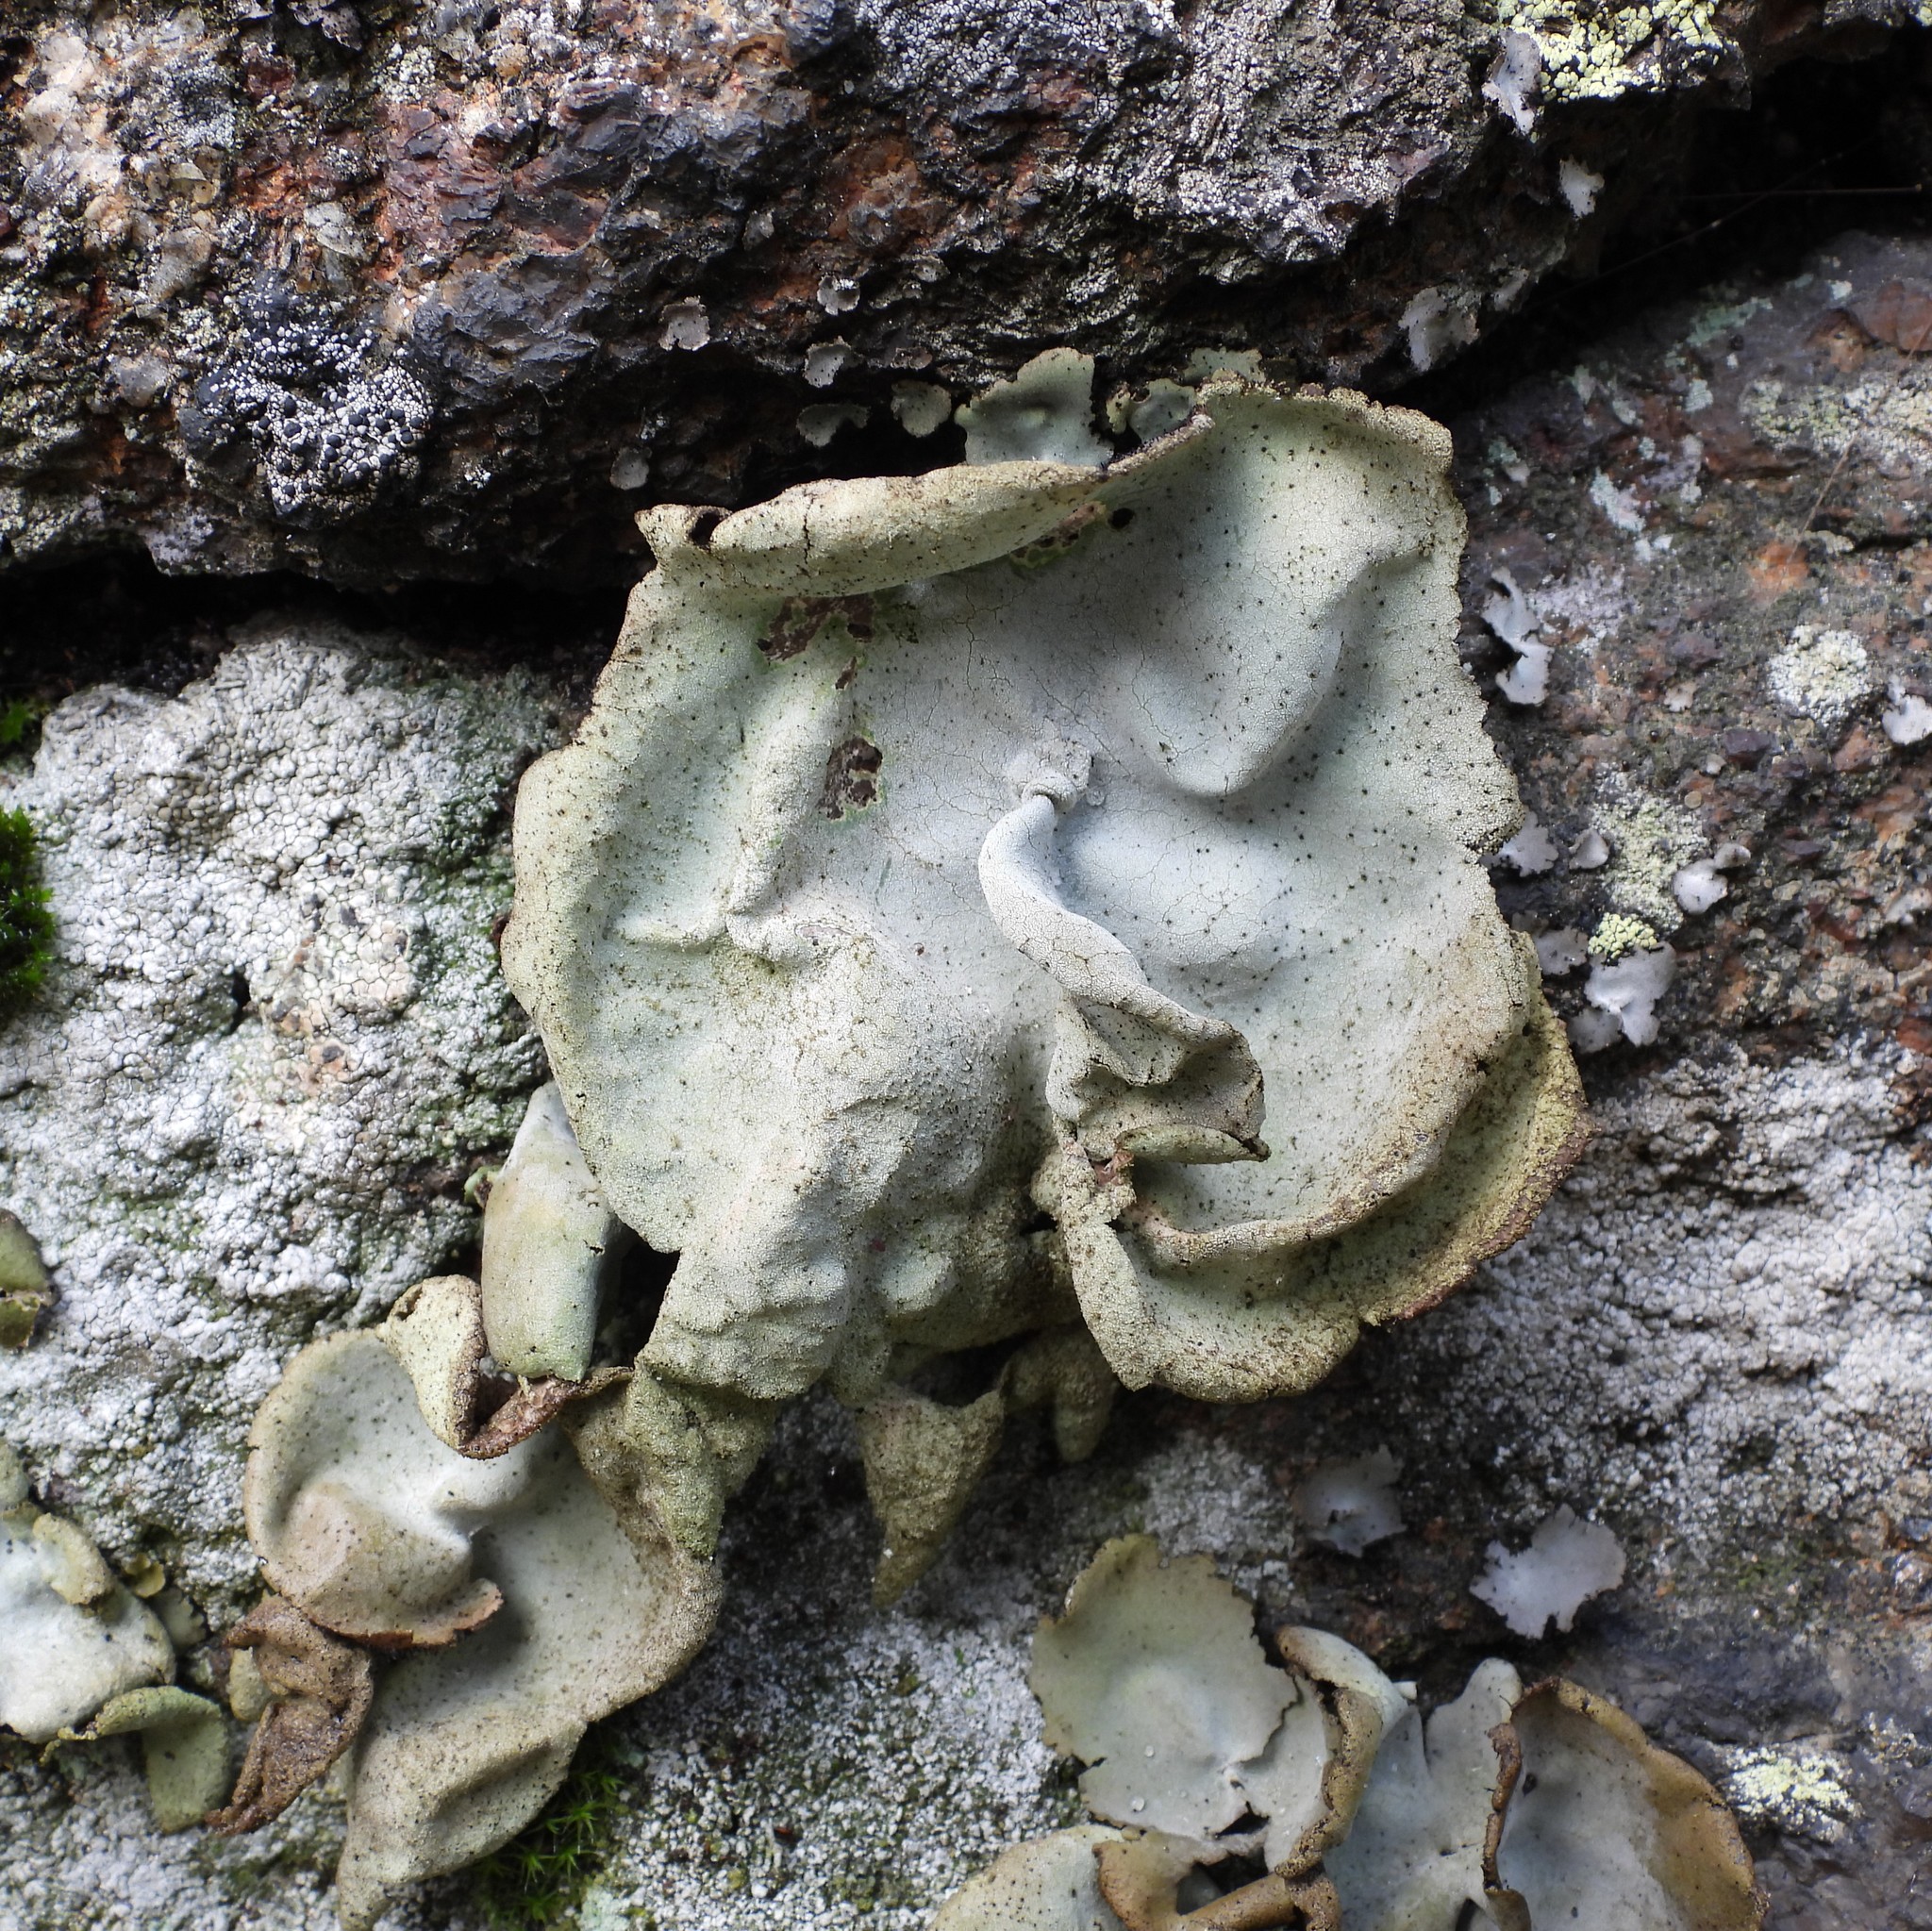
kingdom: Fungi
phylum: Ascomycota
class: Lecanoromycetes
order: Umbilicariales
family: Umbilicariaceae
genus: Umbilicaria
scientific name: Umbilicaria hirsuta
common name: Granulating rocktripe lichen
